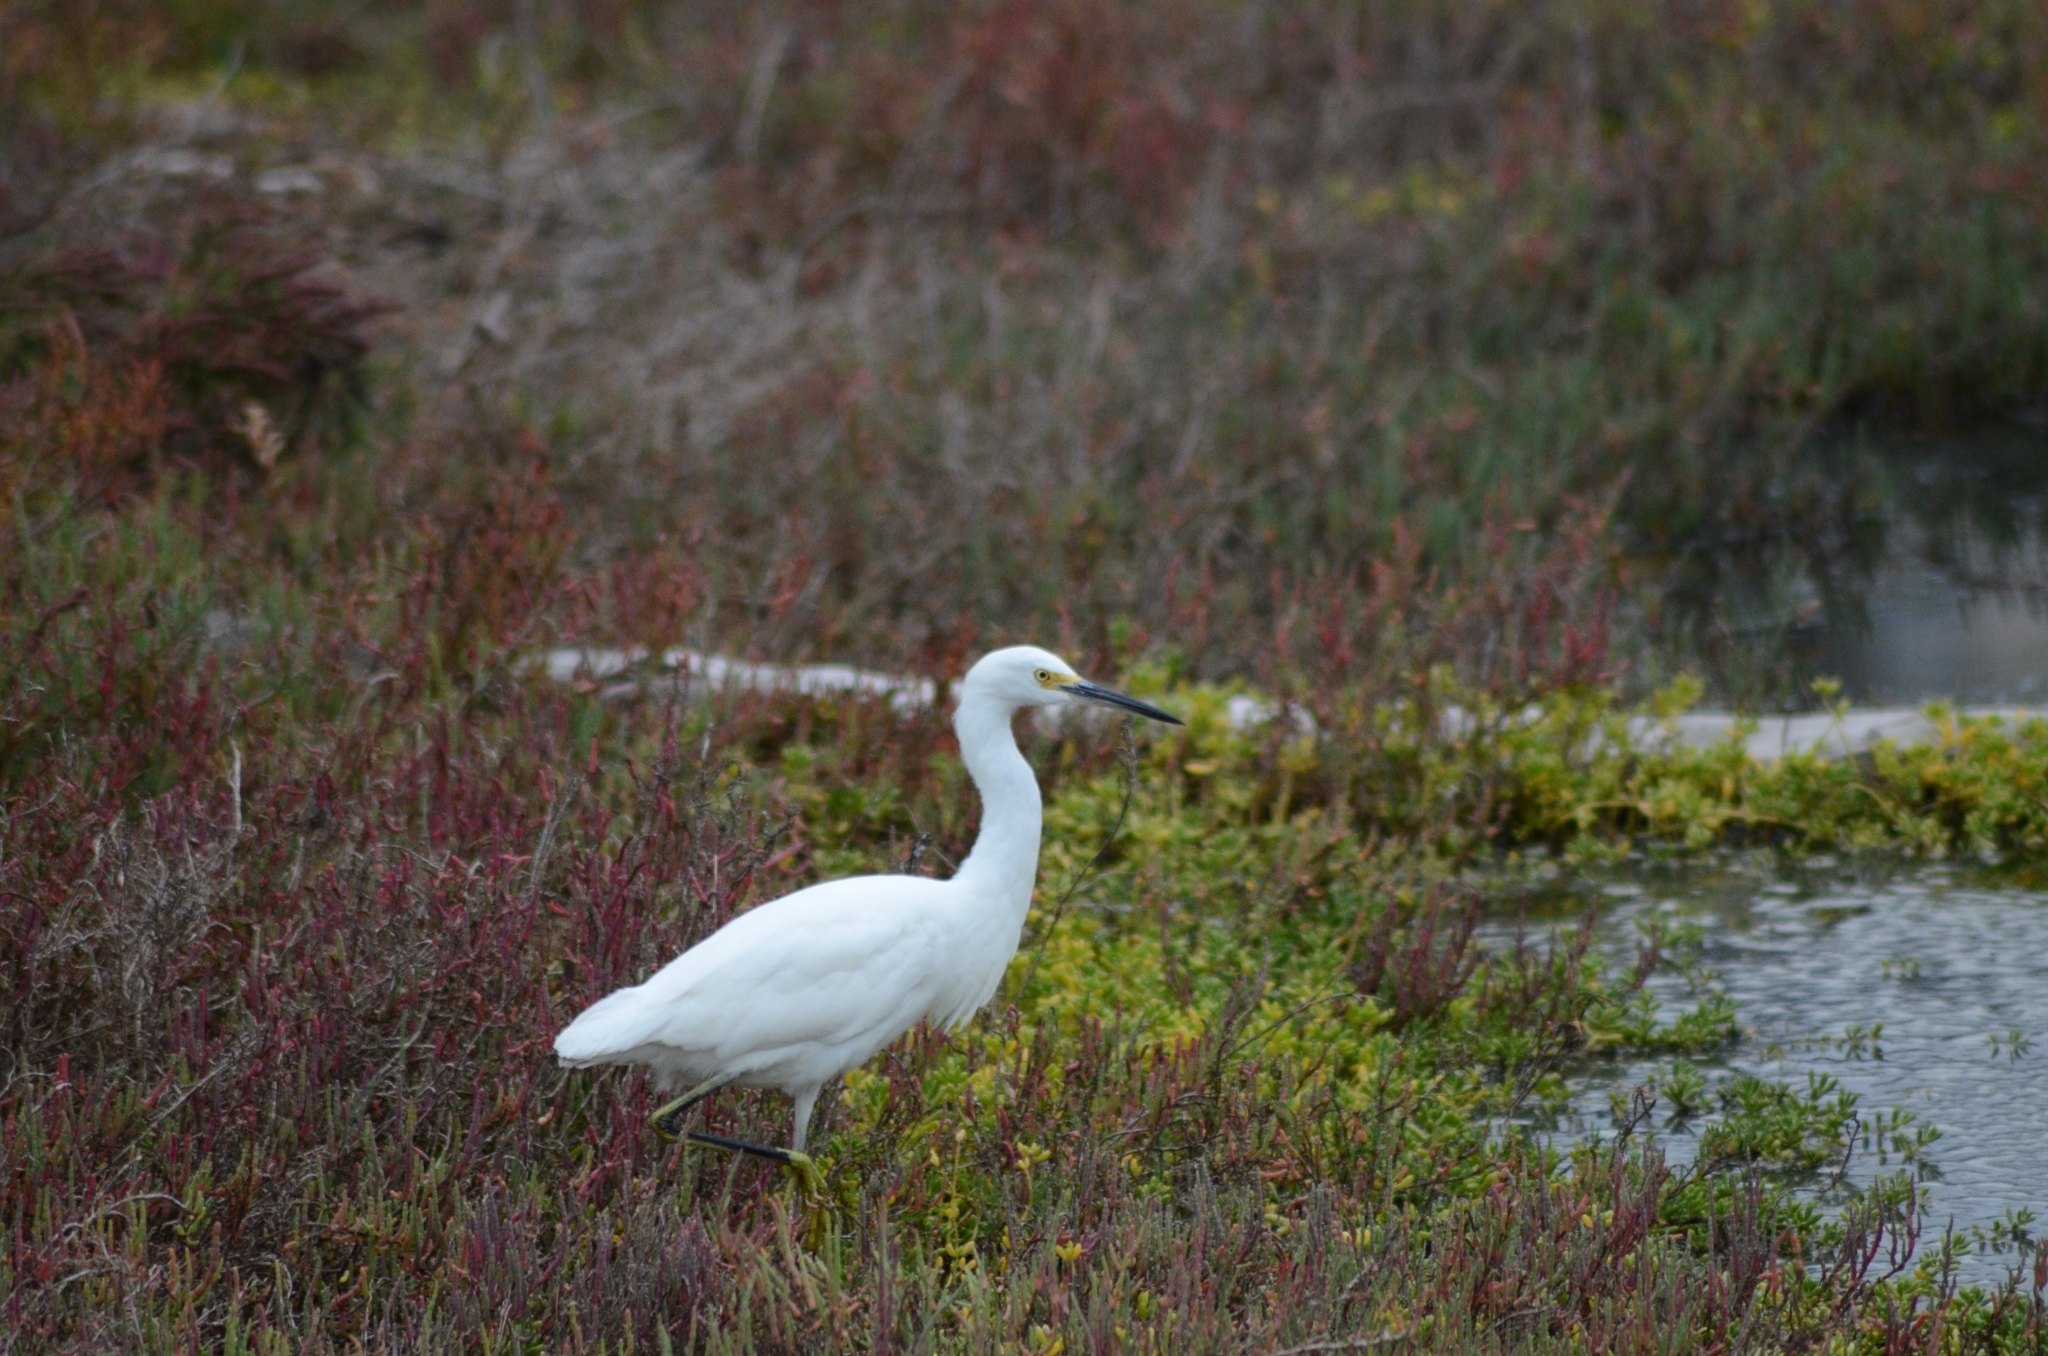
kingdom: Animalia
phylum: Chordata
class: Aves
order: Pelecaniformes
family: Ardeidae
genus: Egretta
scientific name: Egretta thula
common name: Snowy egret
